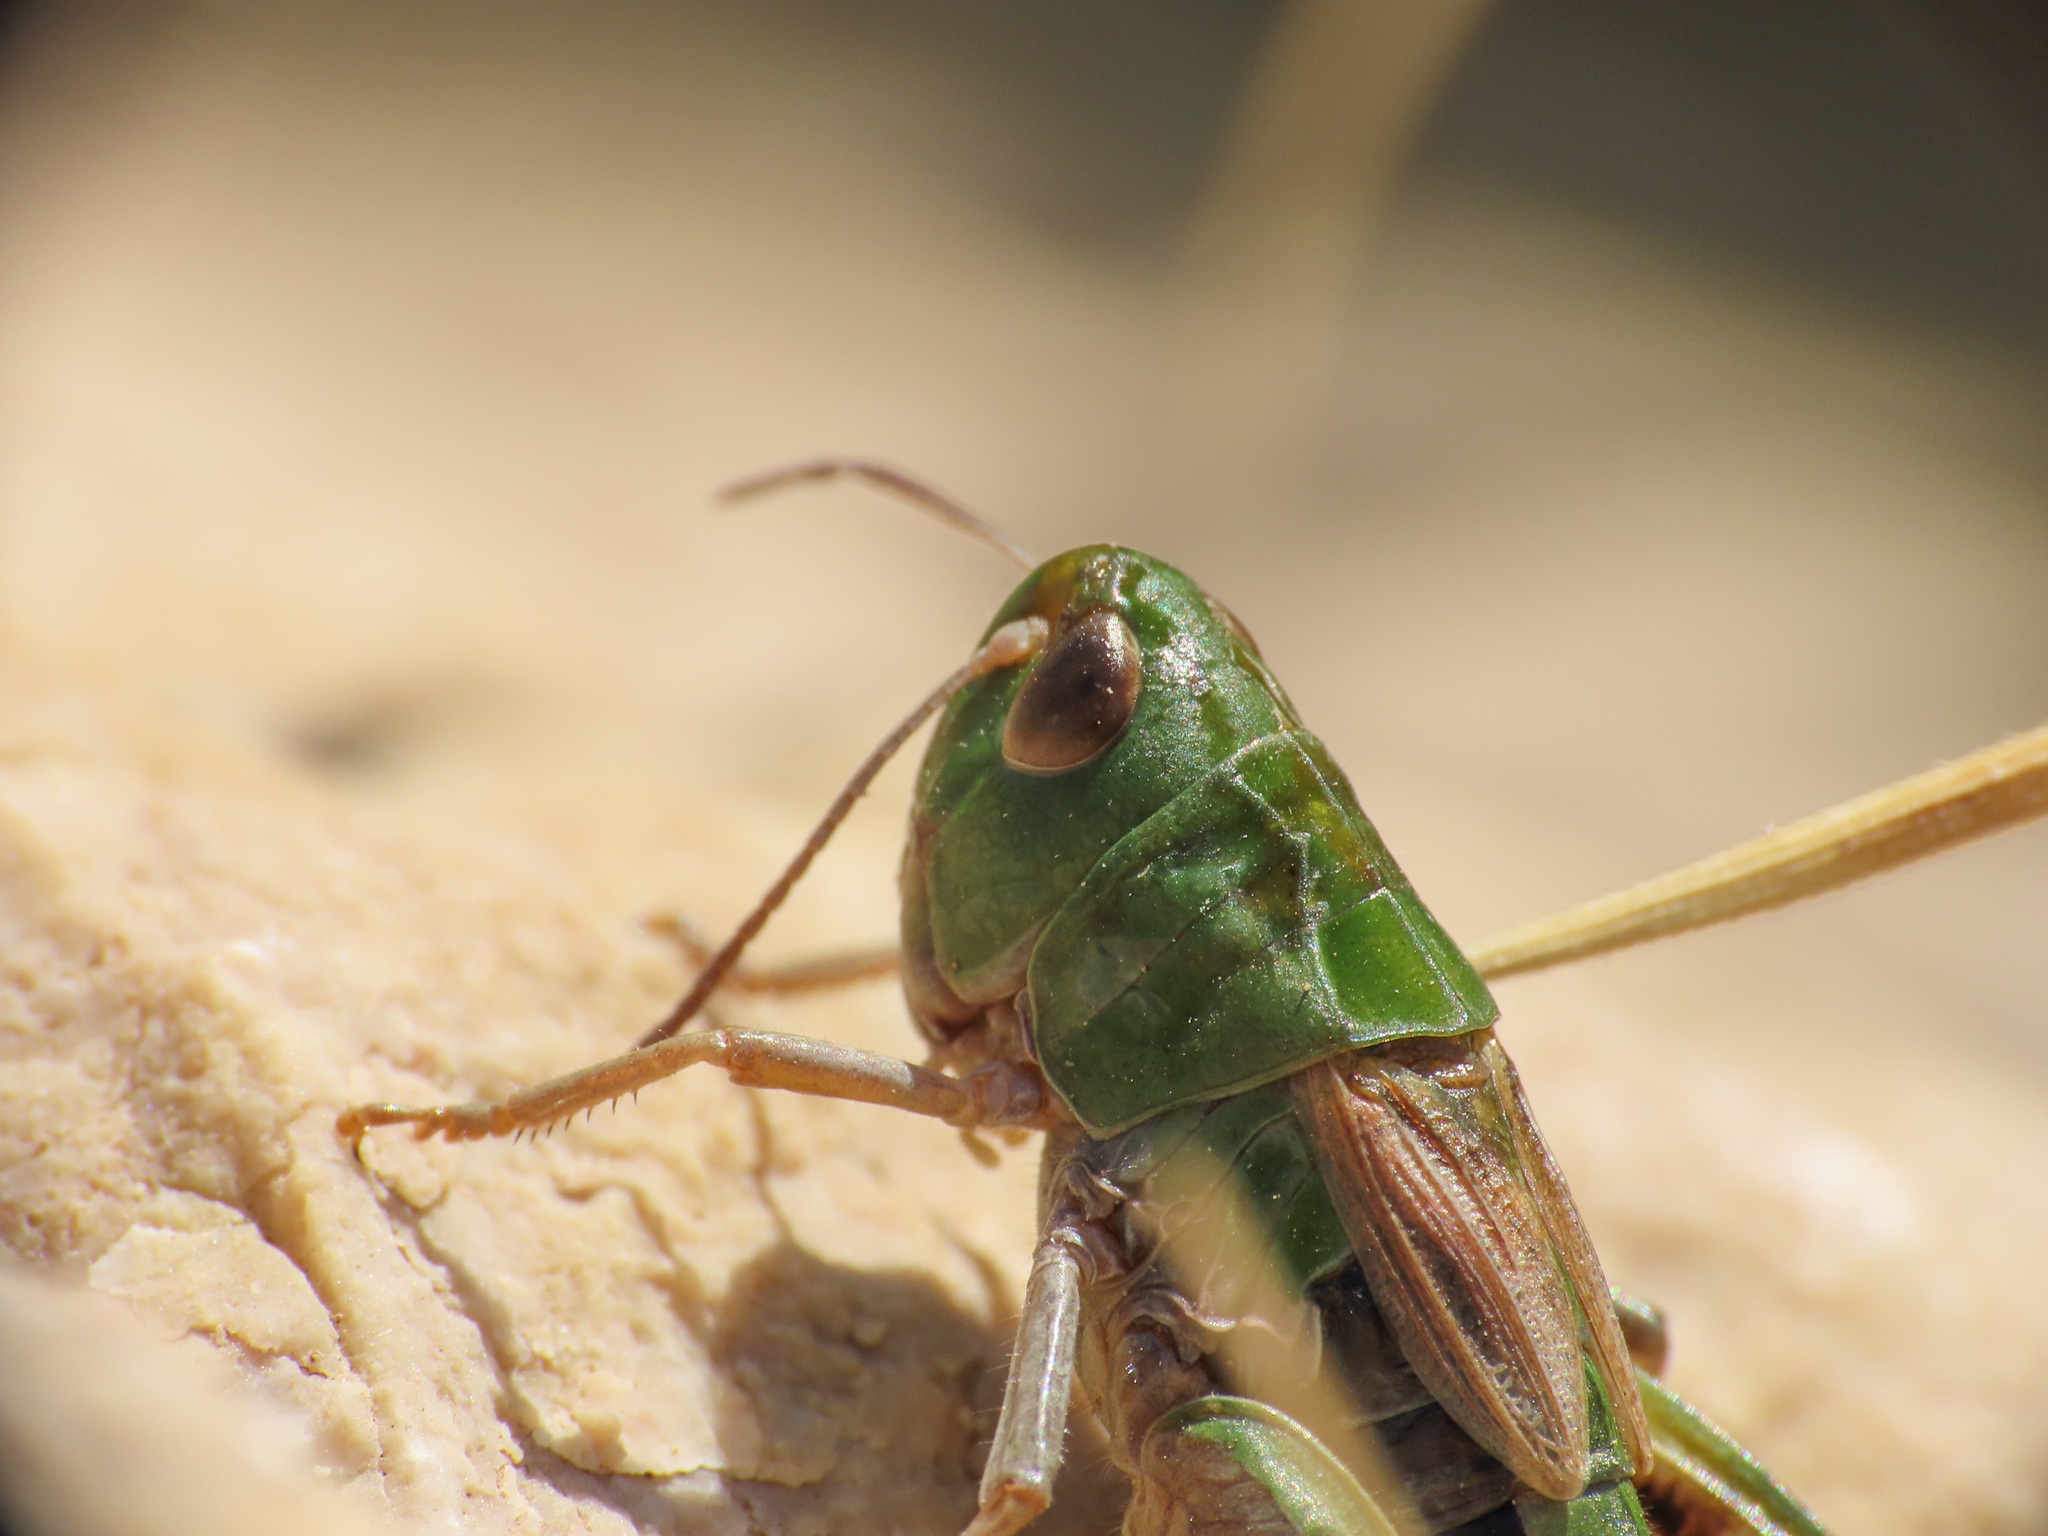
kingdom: Animalia
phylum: Arthropoda
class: Insecta
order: Orthoptera
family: Acrididae
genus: Stenobothrus
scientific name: Stenobothrus apenninus
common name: Apennine grasshopper
